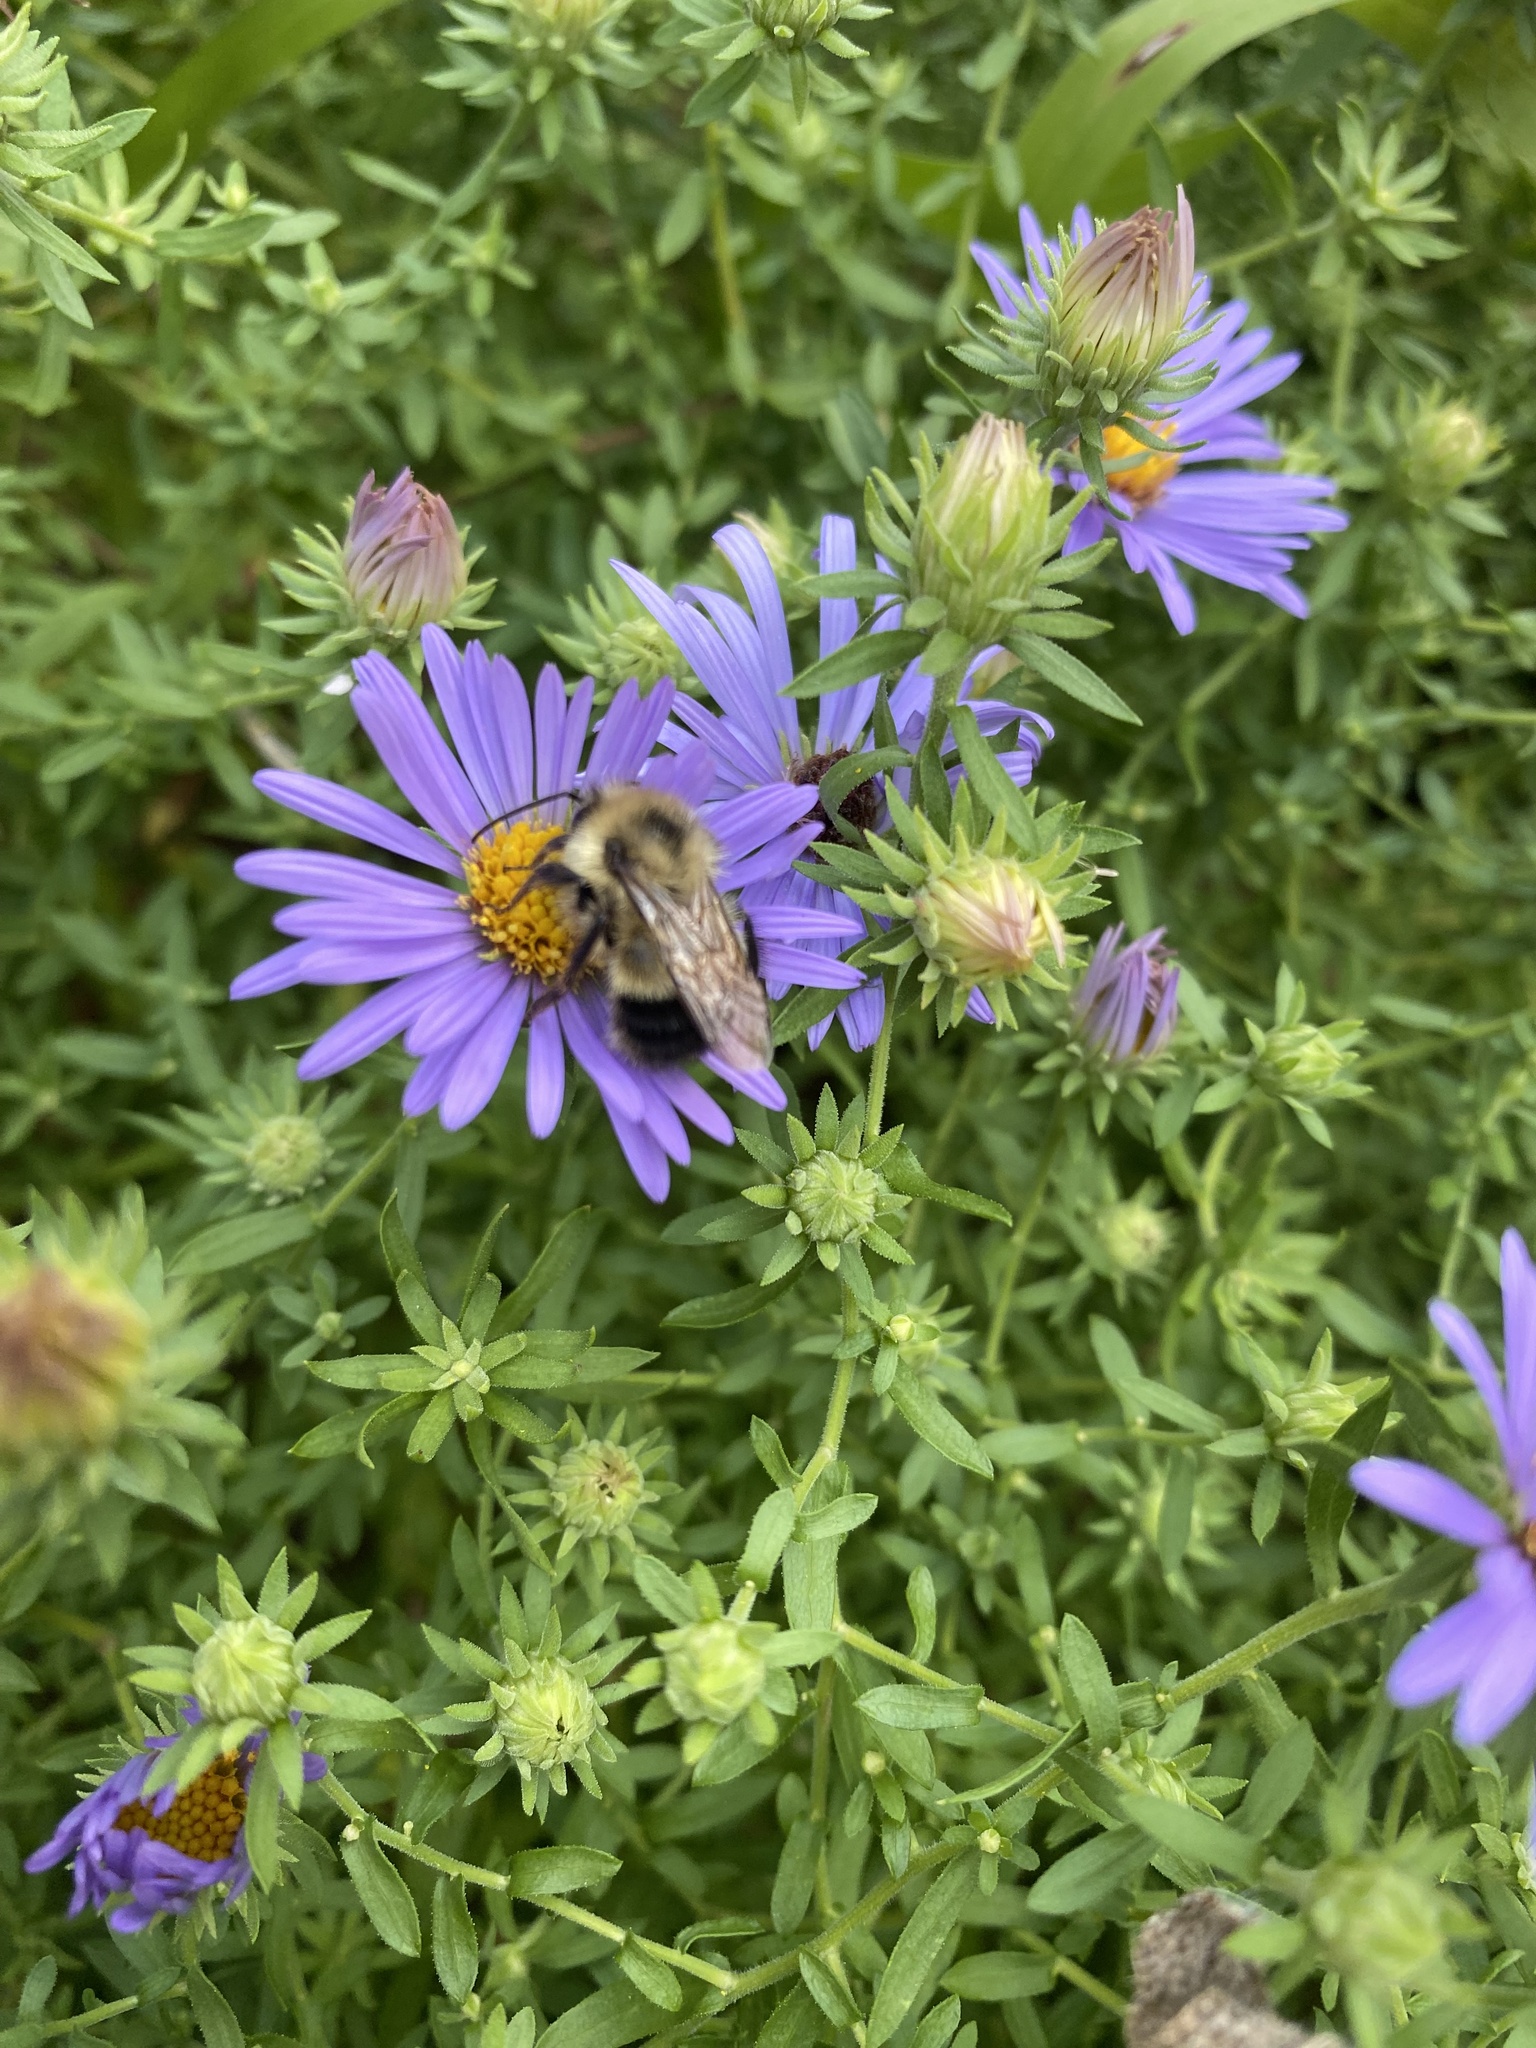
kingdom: Animalia
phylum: Arthropoda
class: Insecta
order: Hymenoptera
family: Apidae
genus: Bombus
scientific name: Bombus vagans
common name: Half-black bumble bee
